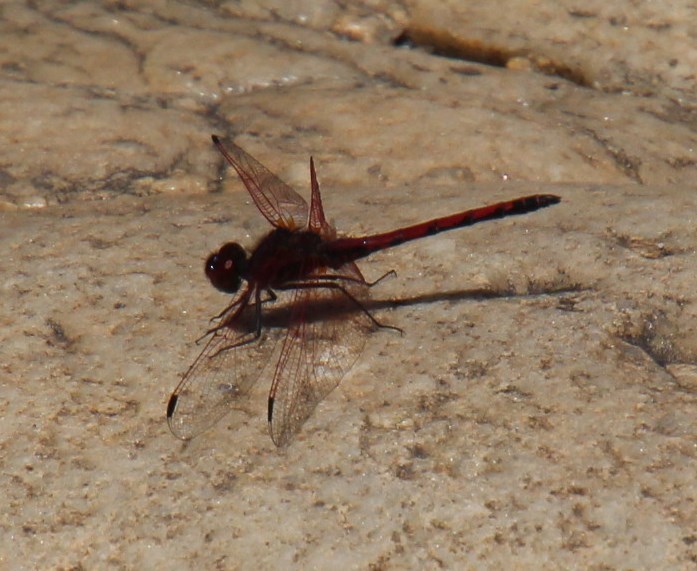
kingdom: Animalia
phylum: Arthropoda
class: Insecta
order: Odonata
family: Libellulidae
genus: Trithemis
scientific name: Trithemis arteriosa
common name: Red-veined dropwing
